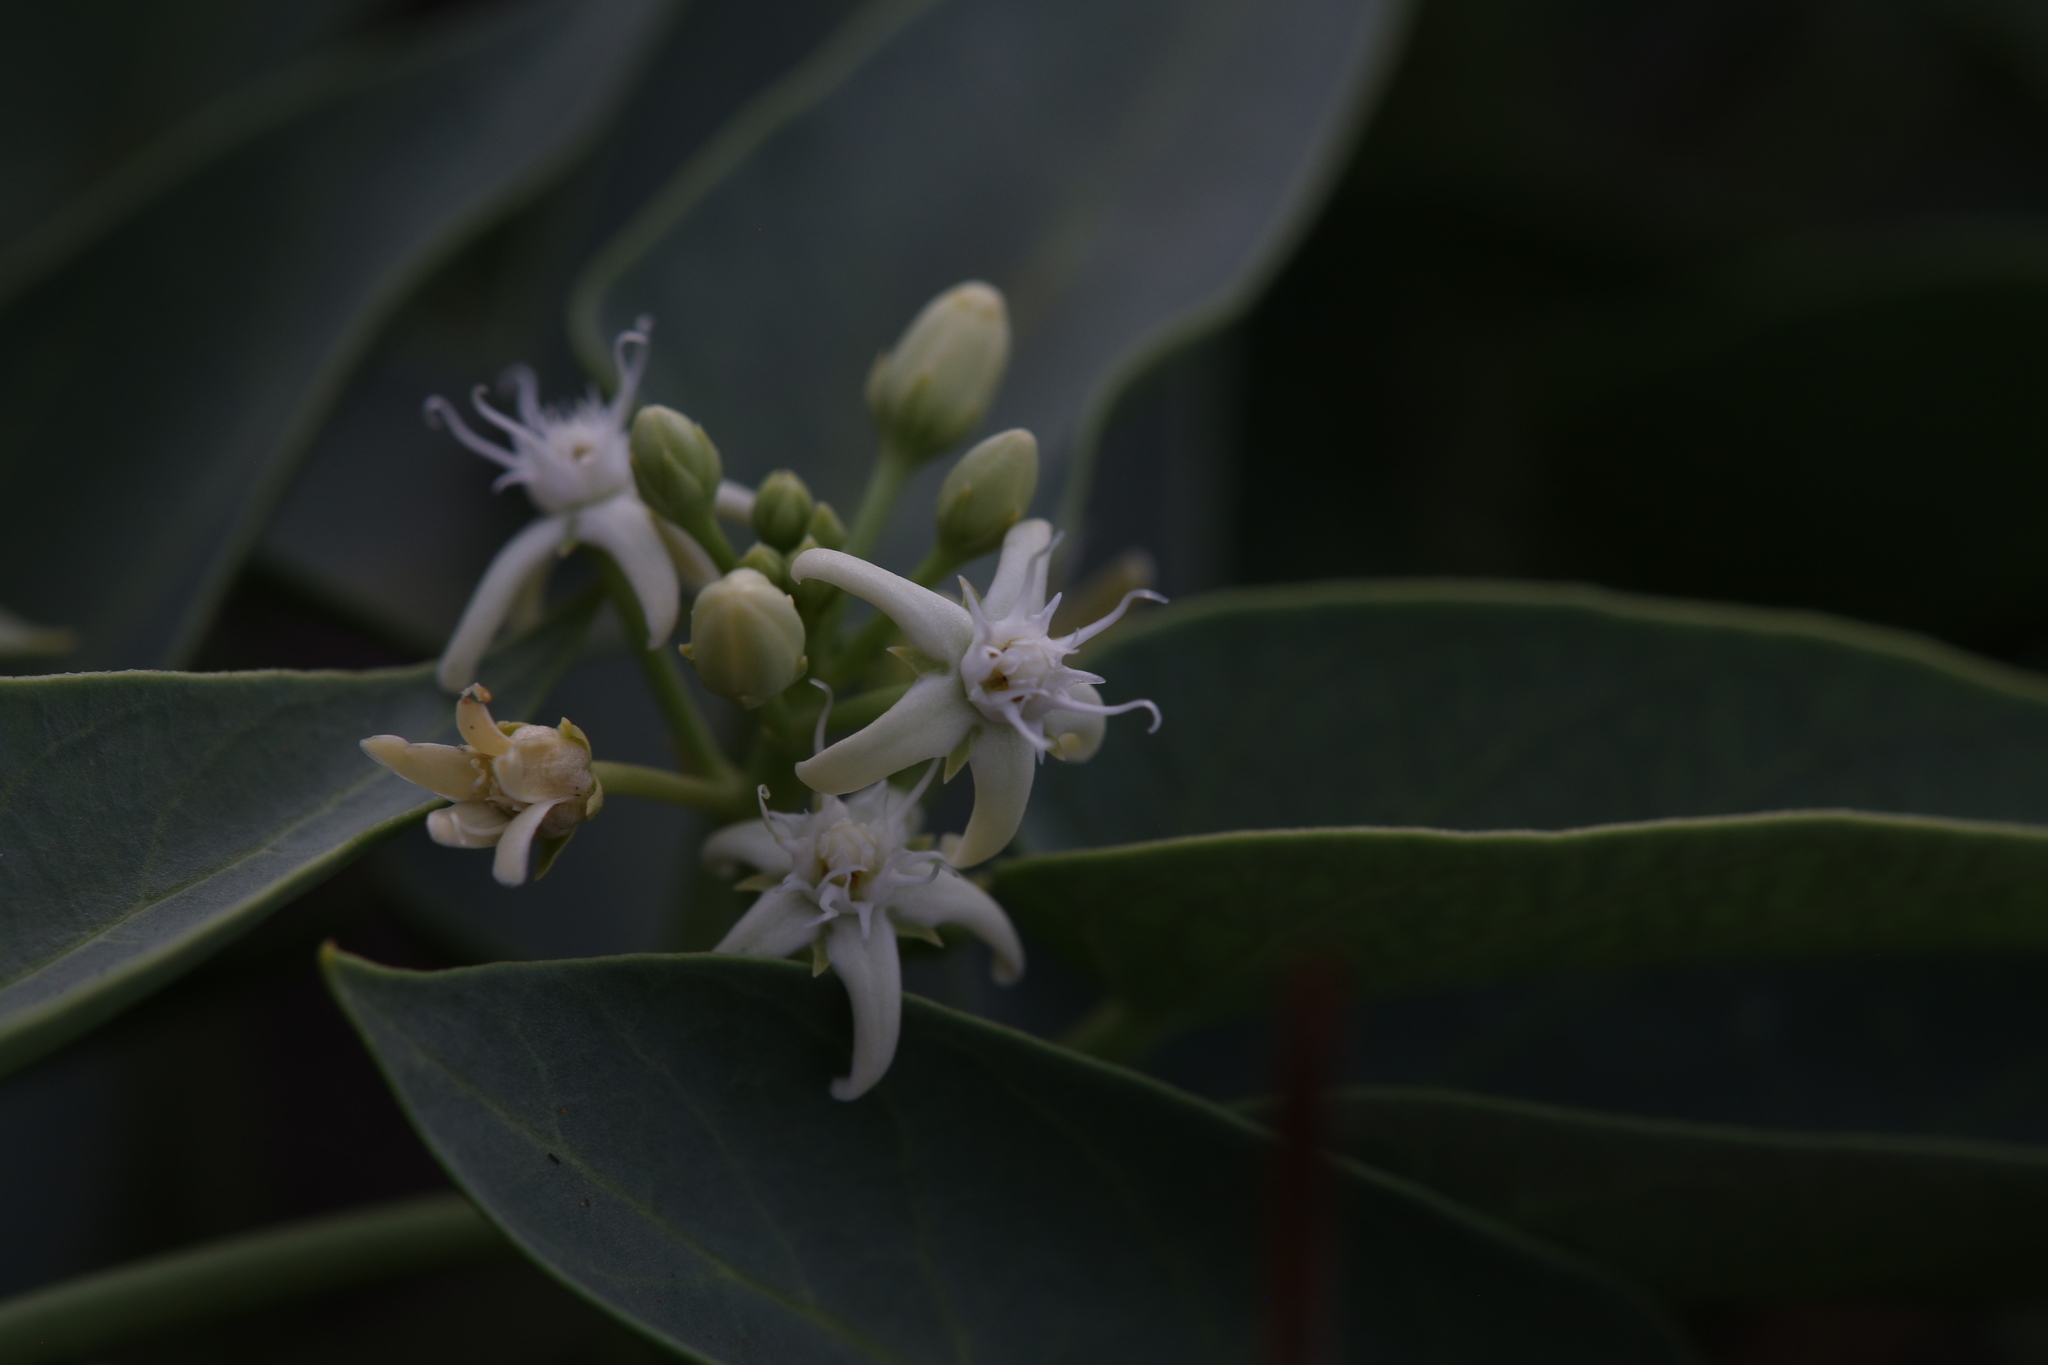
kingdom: Plantae
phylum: Tracheophyta
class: Magnoliopsida
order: Gentianales
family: Apocynaceae
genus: Vincetoxicum
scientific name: Vincetoxicum floribundum
